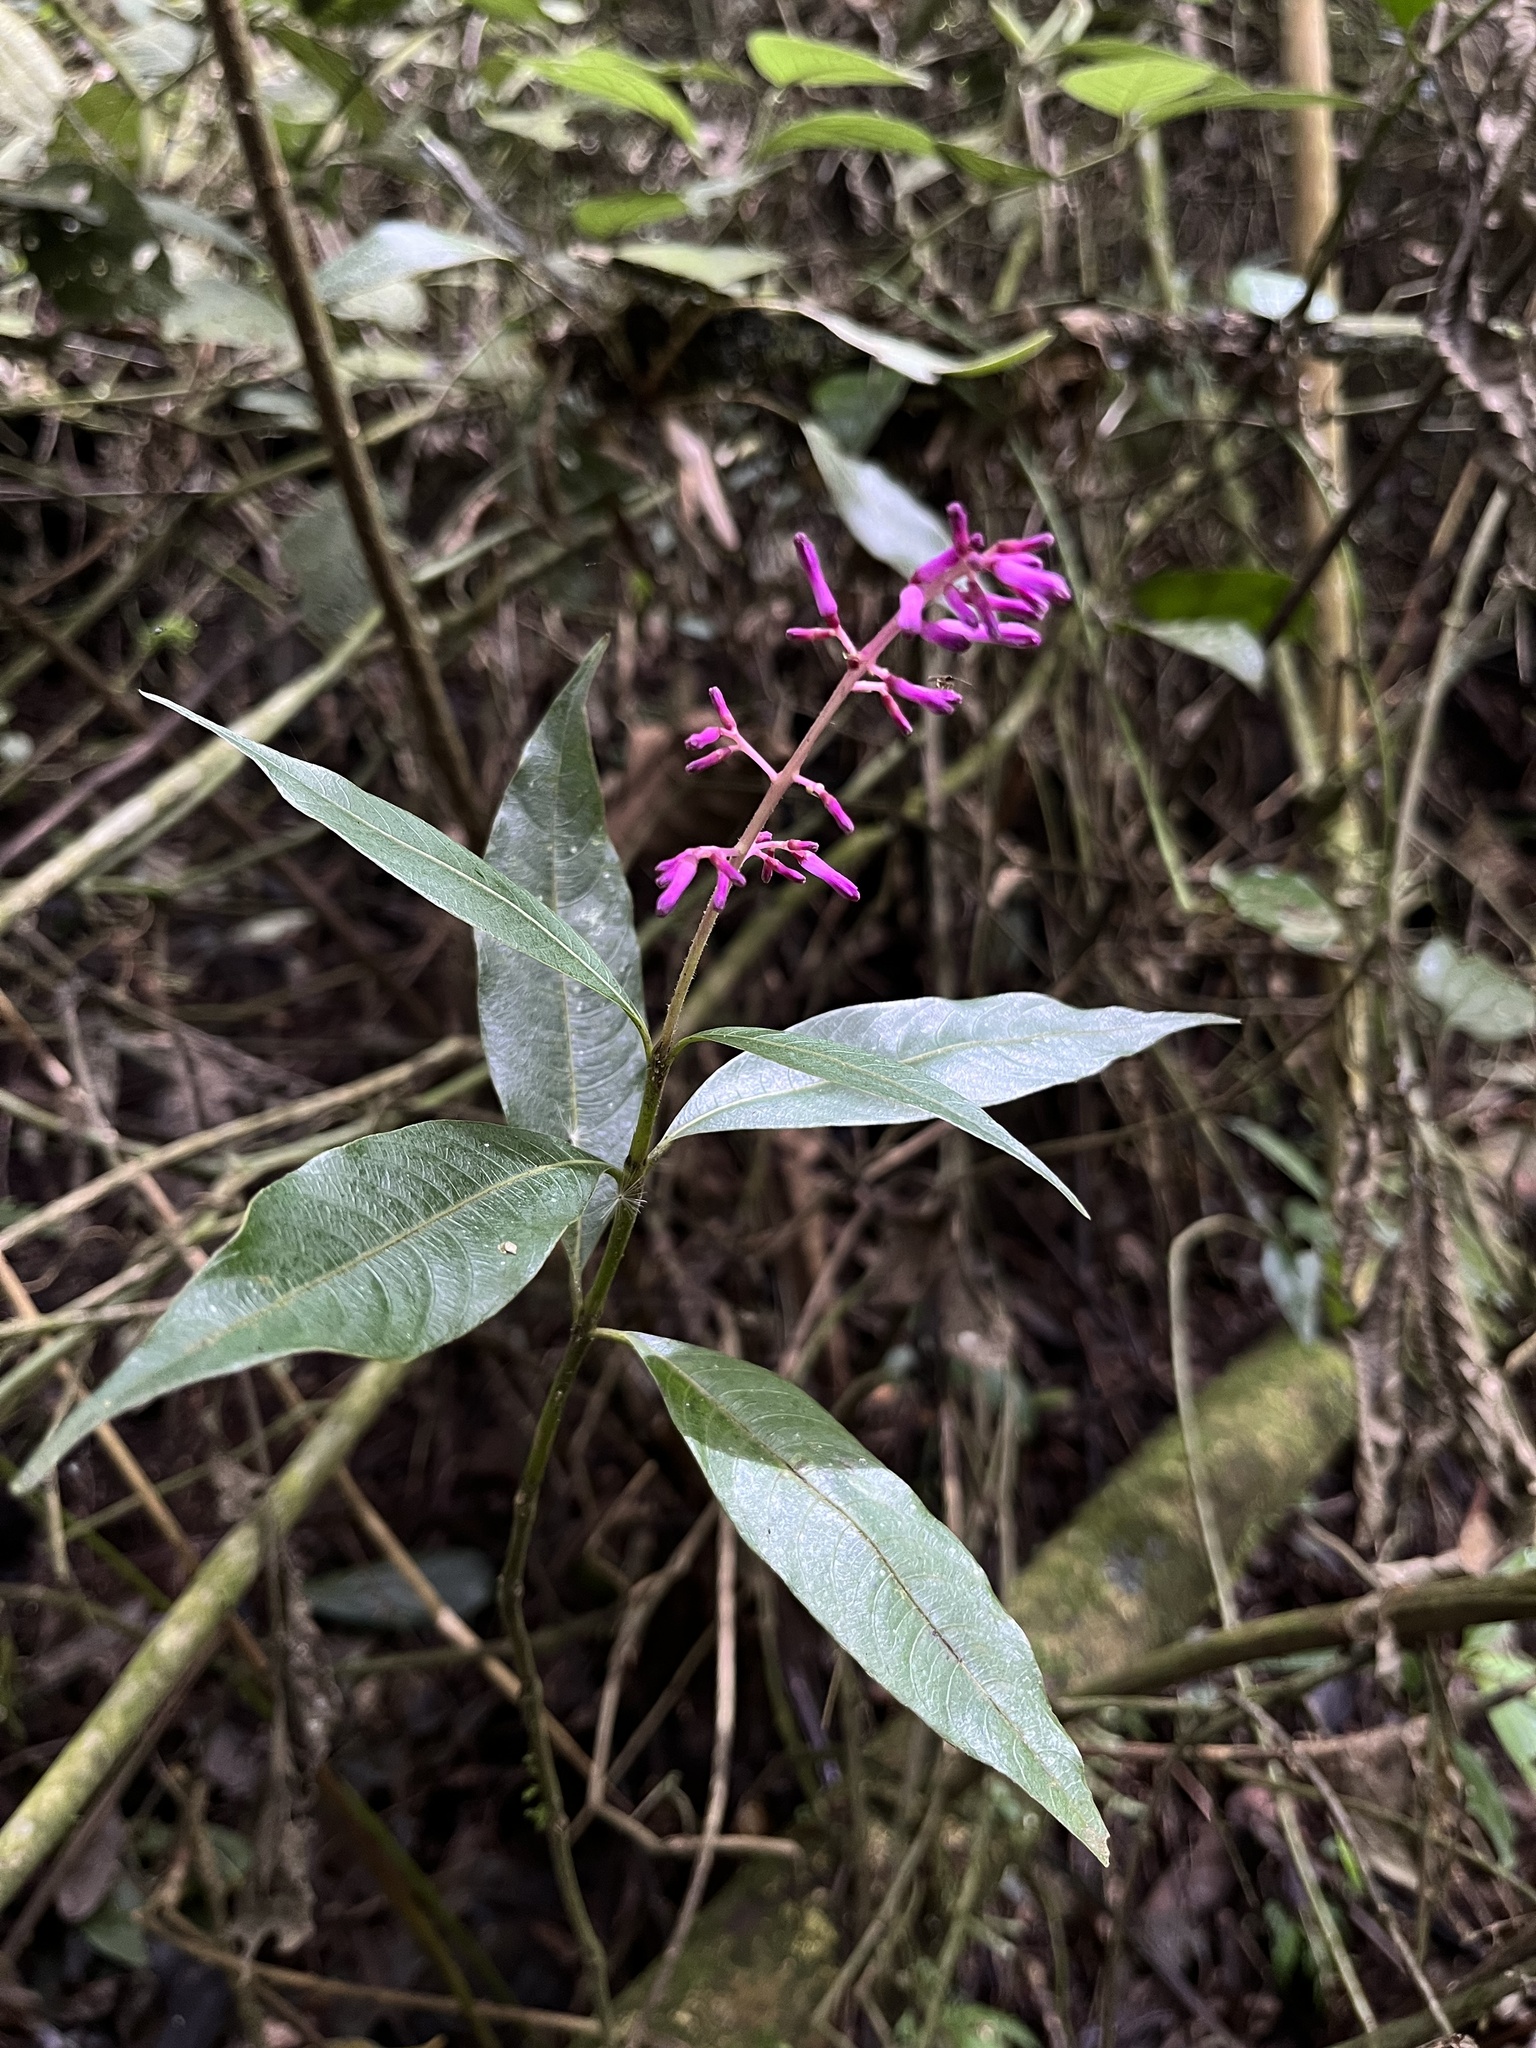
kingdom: Plantae
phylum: Tracheophyta
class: Magnoliopsida
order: Gentianales
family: Rubiaceae
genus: Palicourea
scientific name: Palicourea angustifolia
